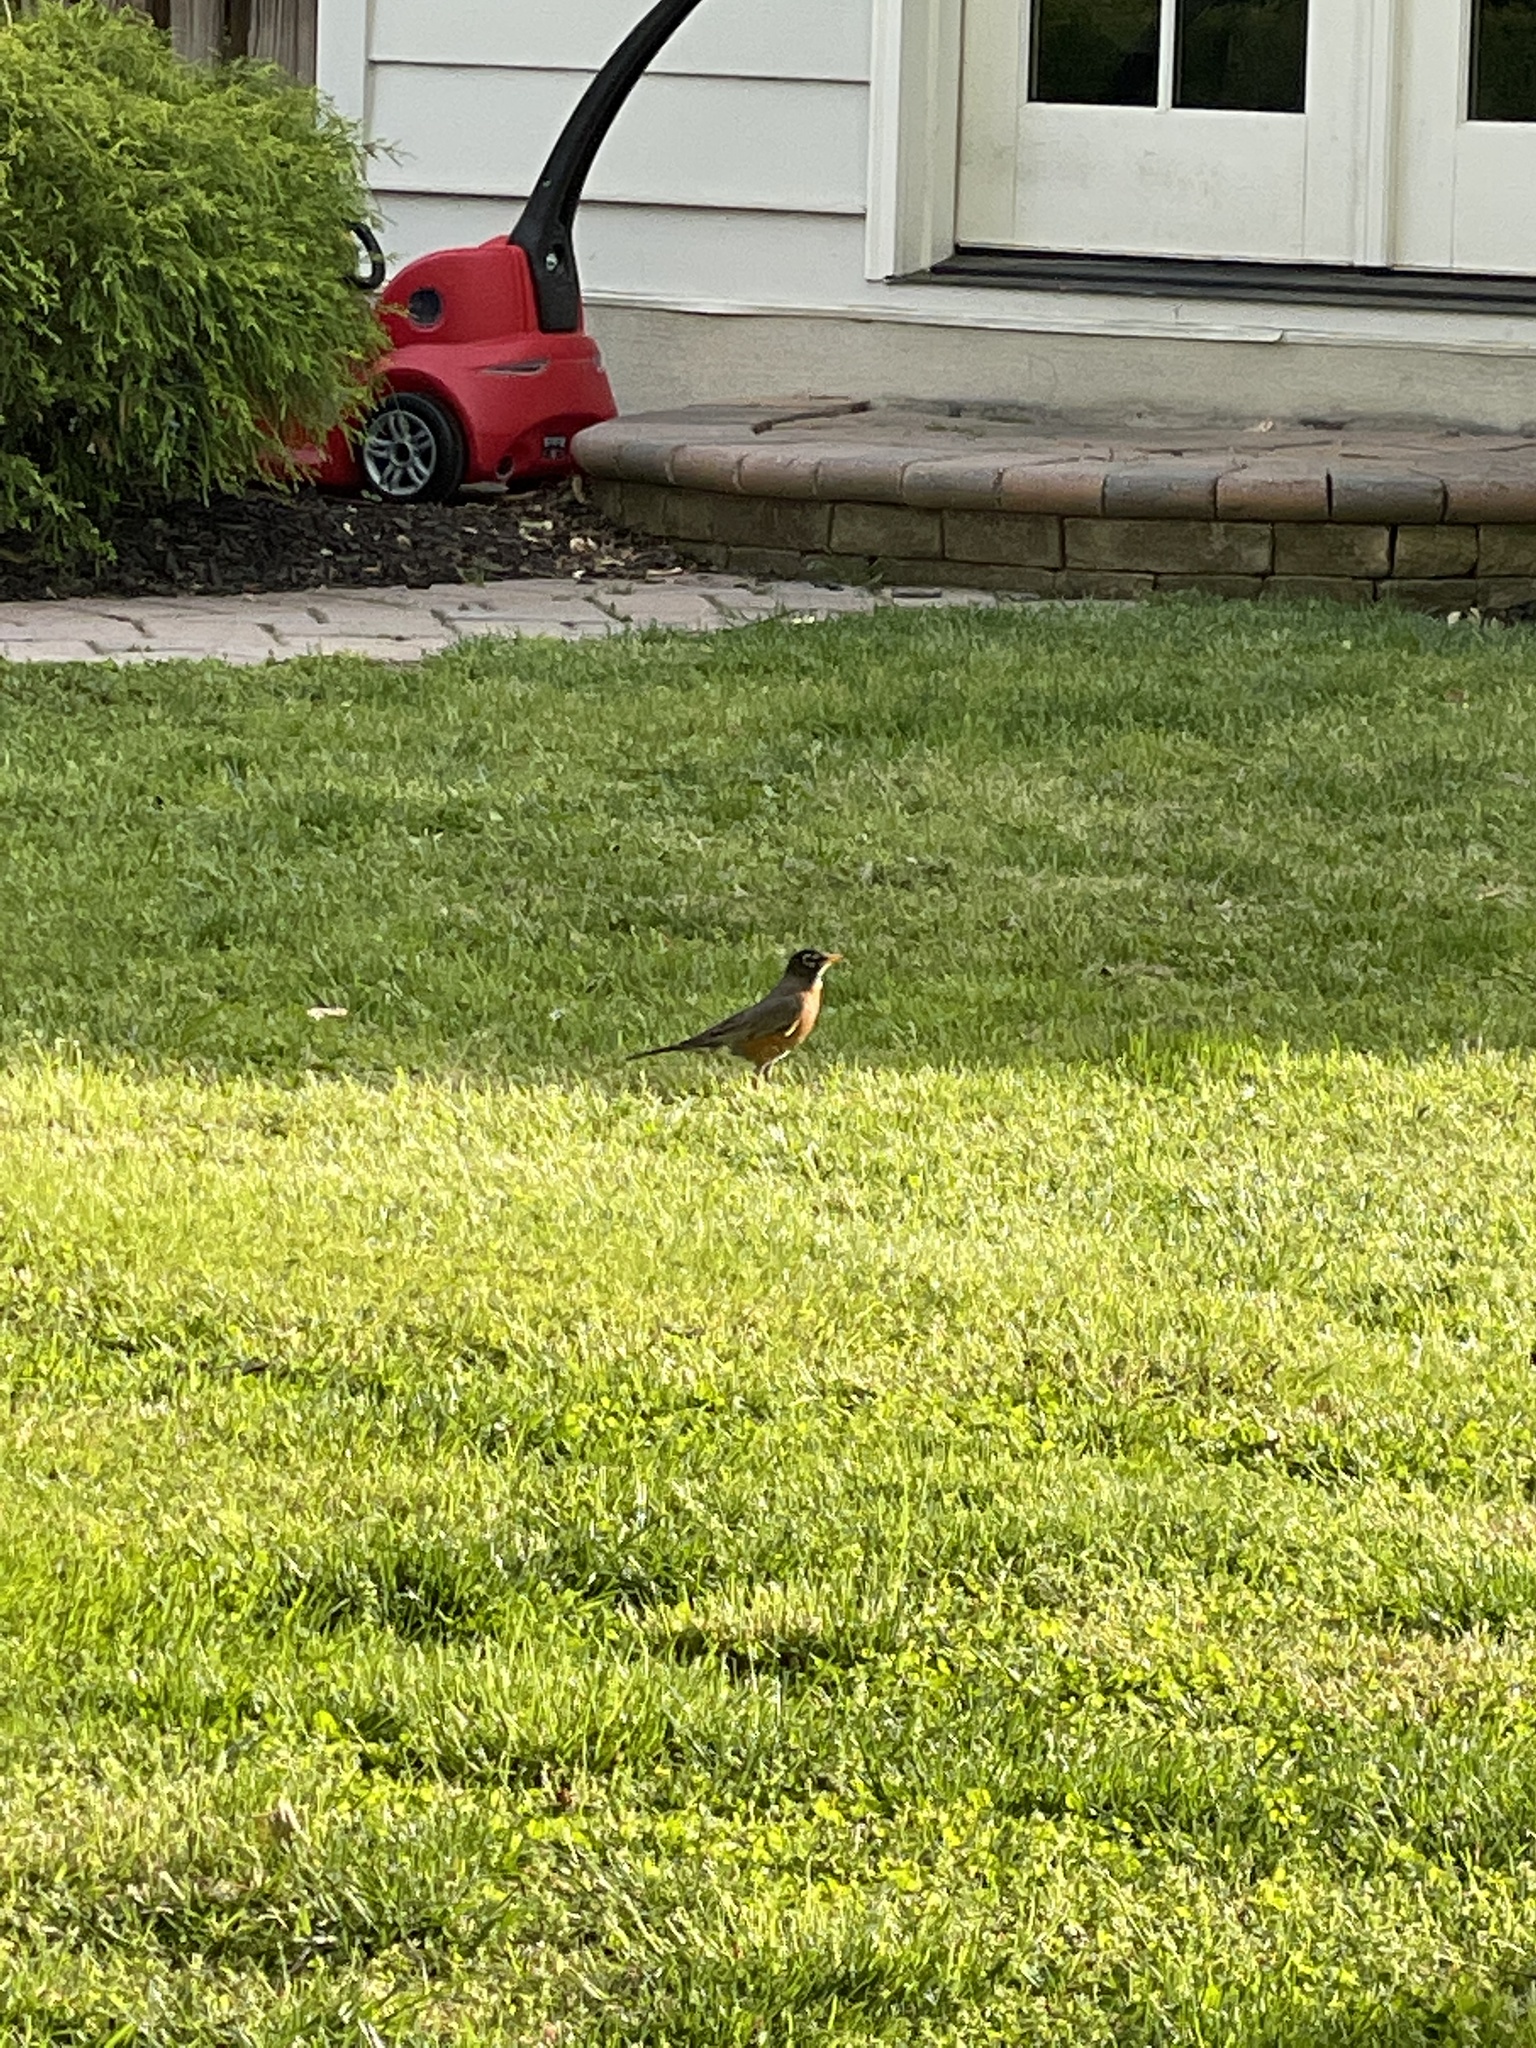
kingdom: Animalia
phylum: Chordata
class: Aves
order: Passeriformes
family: Turdidae
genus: Turdus
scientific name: Turdus migratorius
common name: American robin
